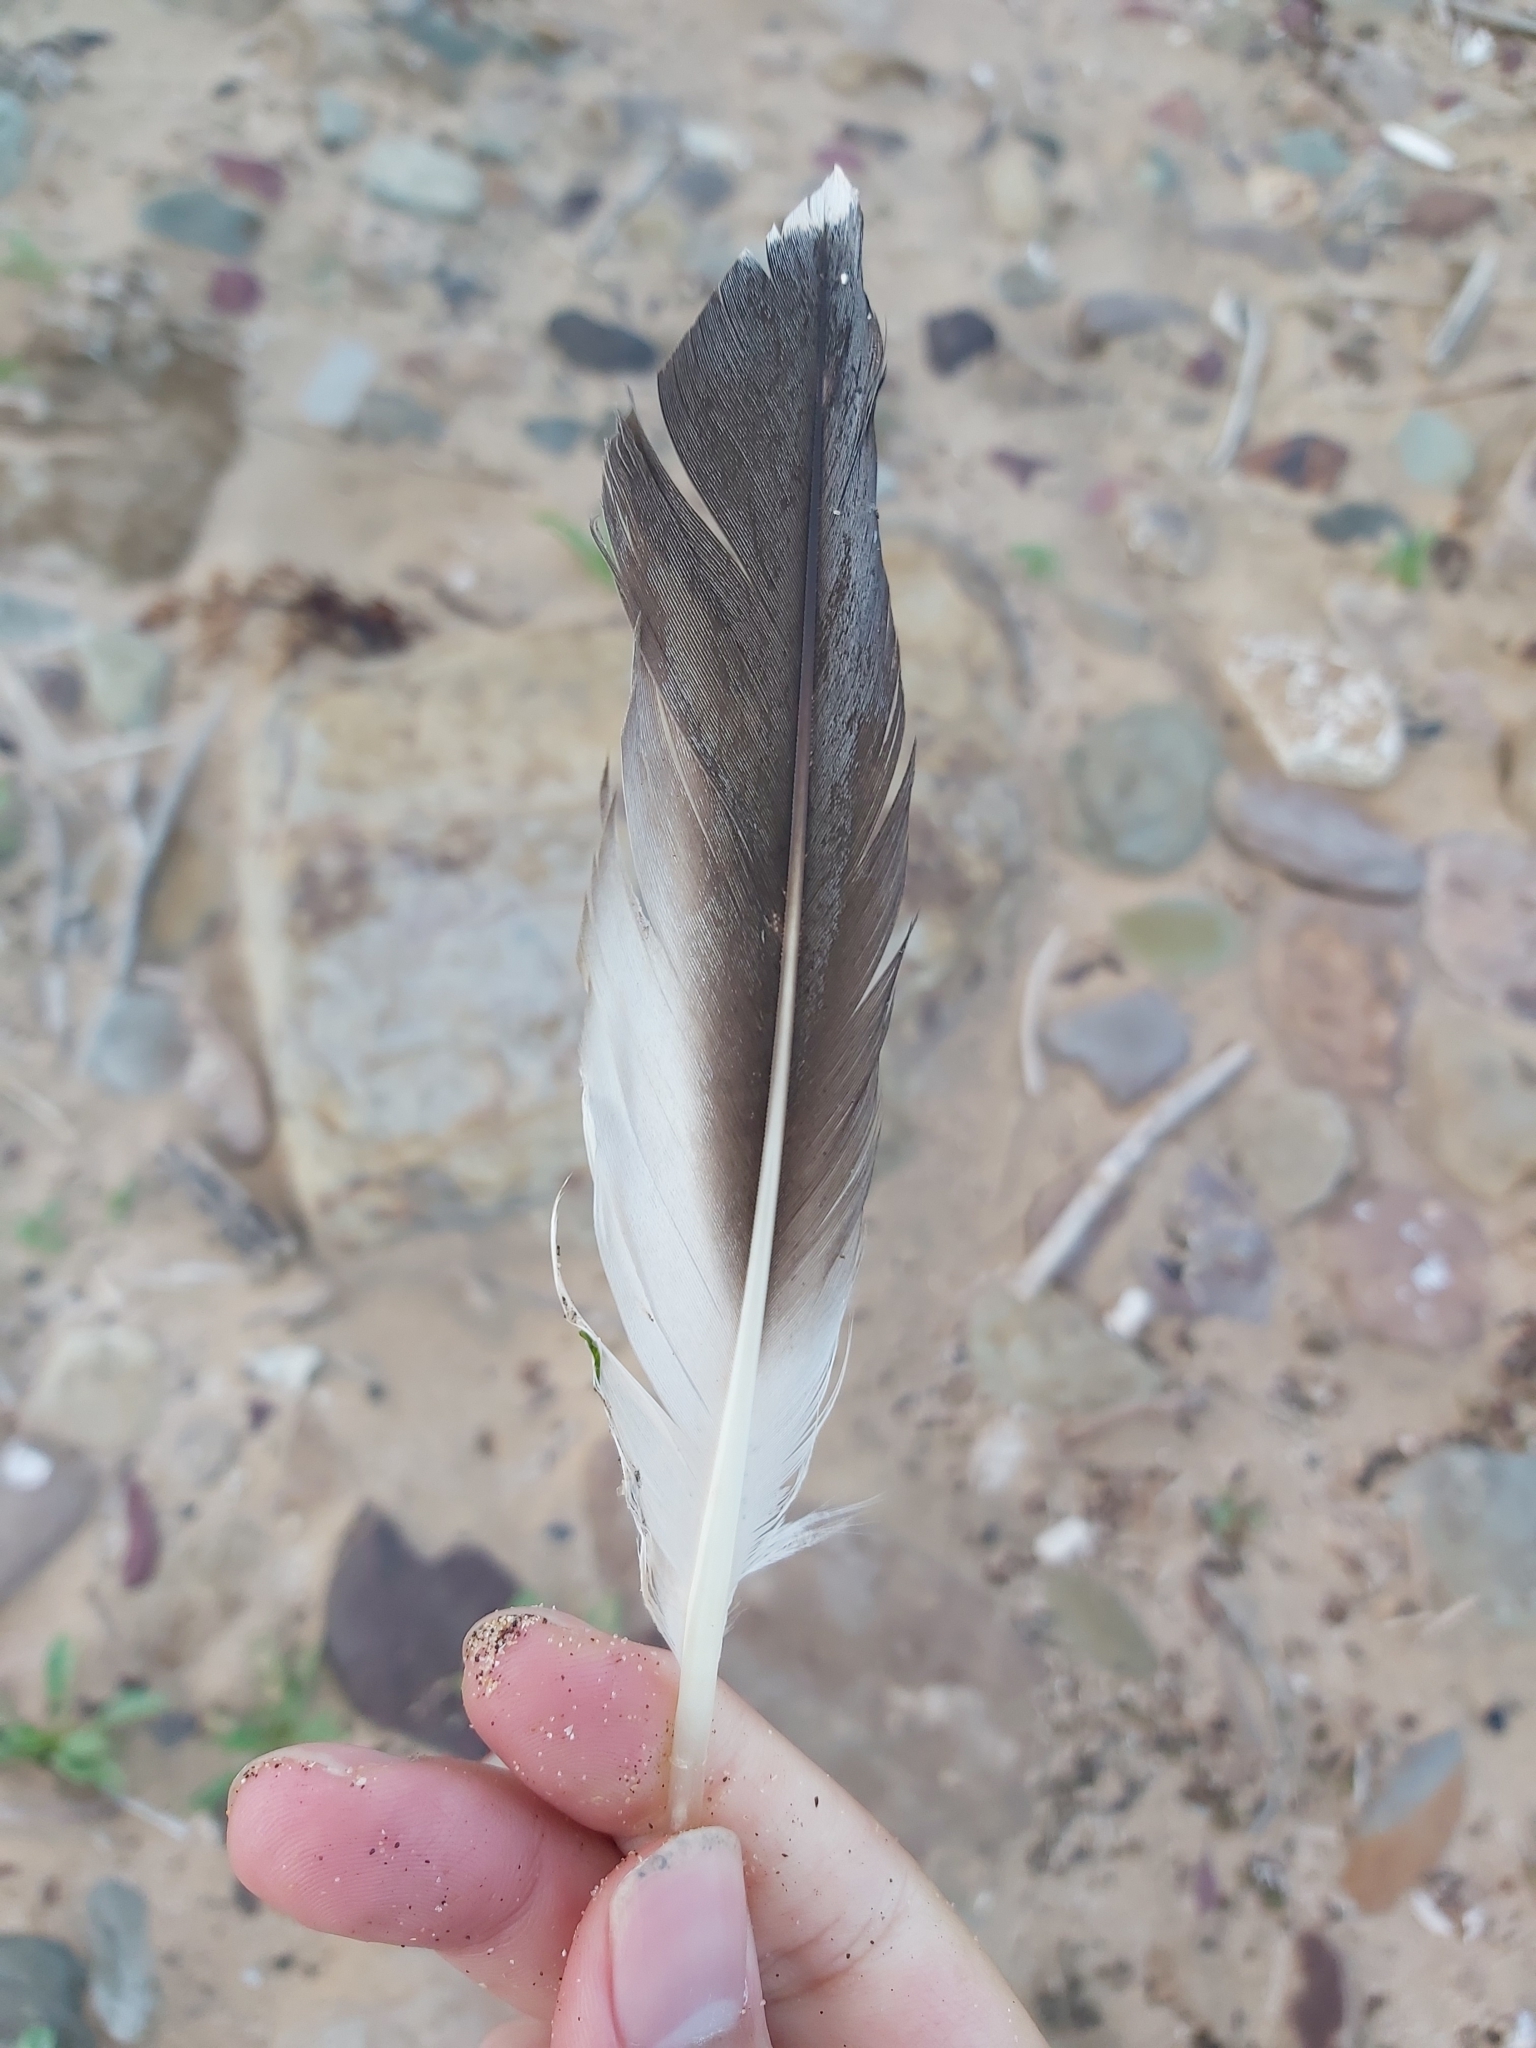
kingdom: Animalia
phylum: Chordata
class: Aves
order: Suliformes
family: Sulidae
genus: Morus
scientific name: Morus serrator
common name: Australasian gannet
